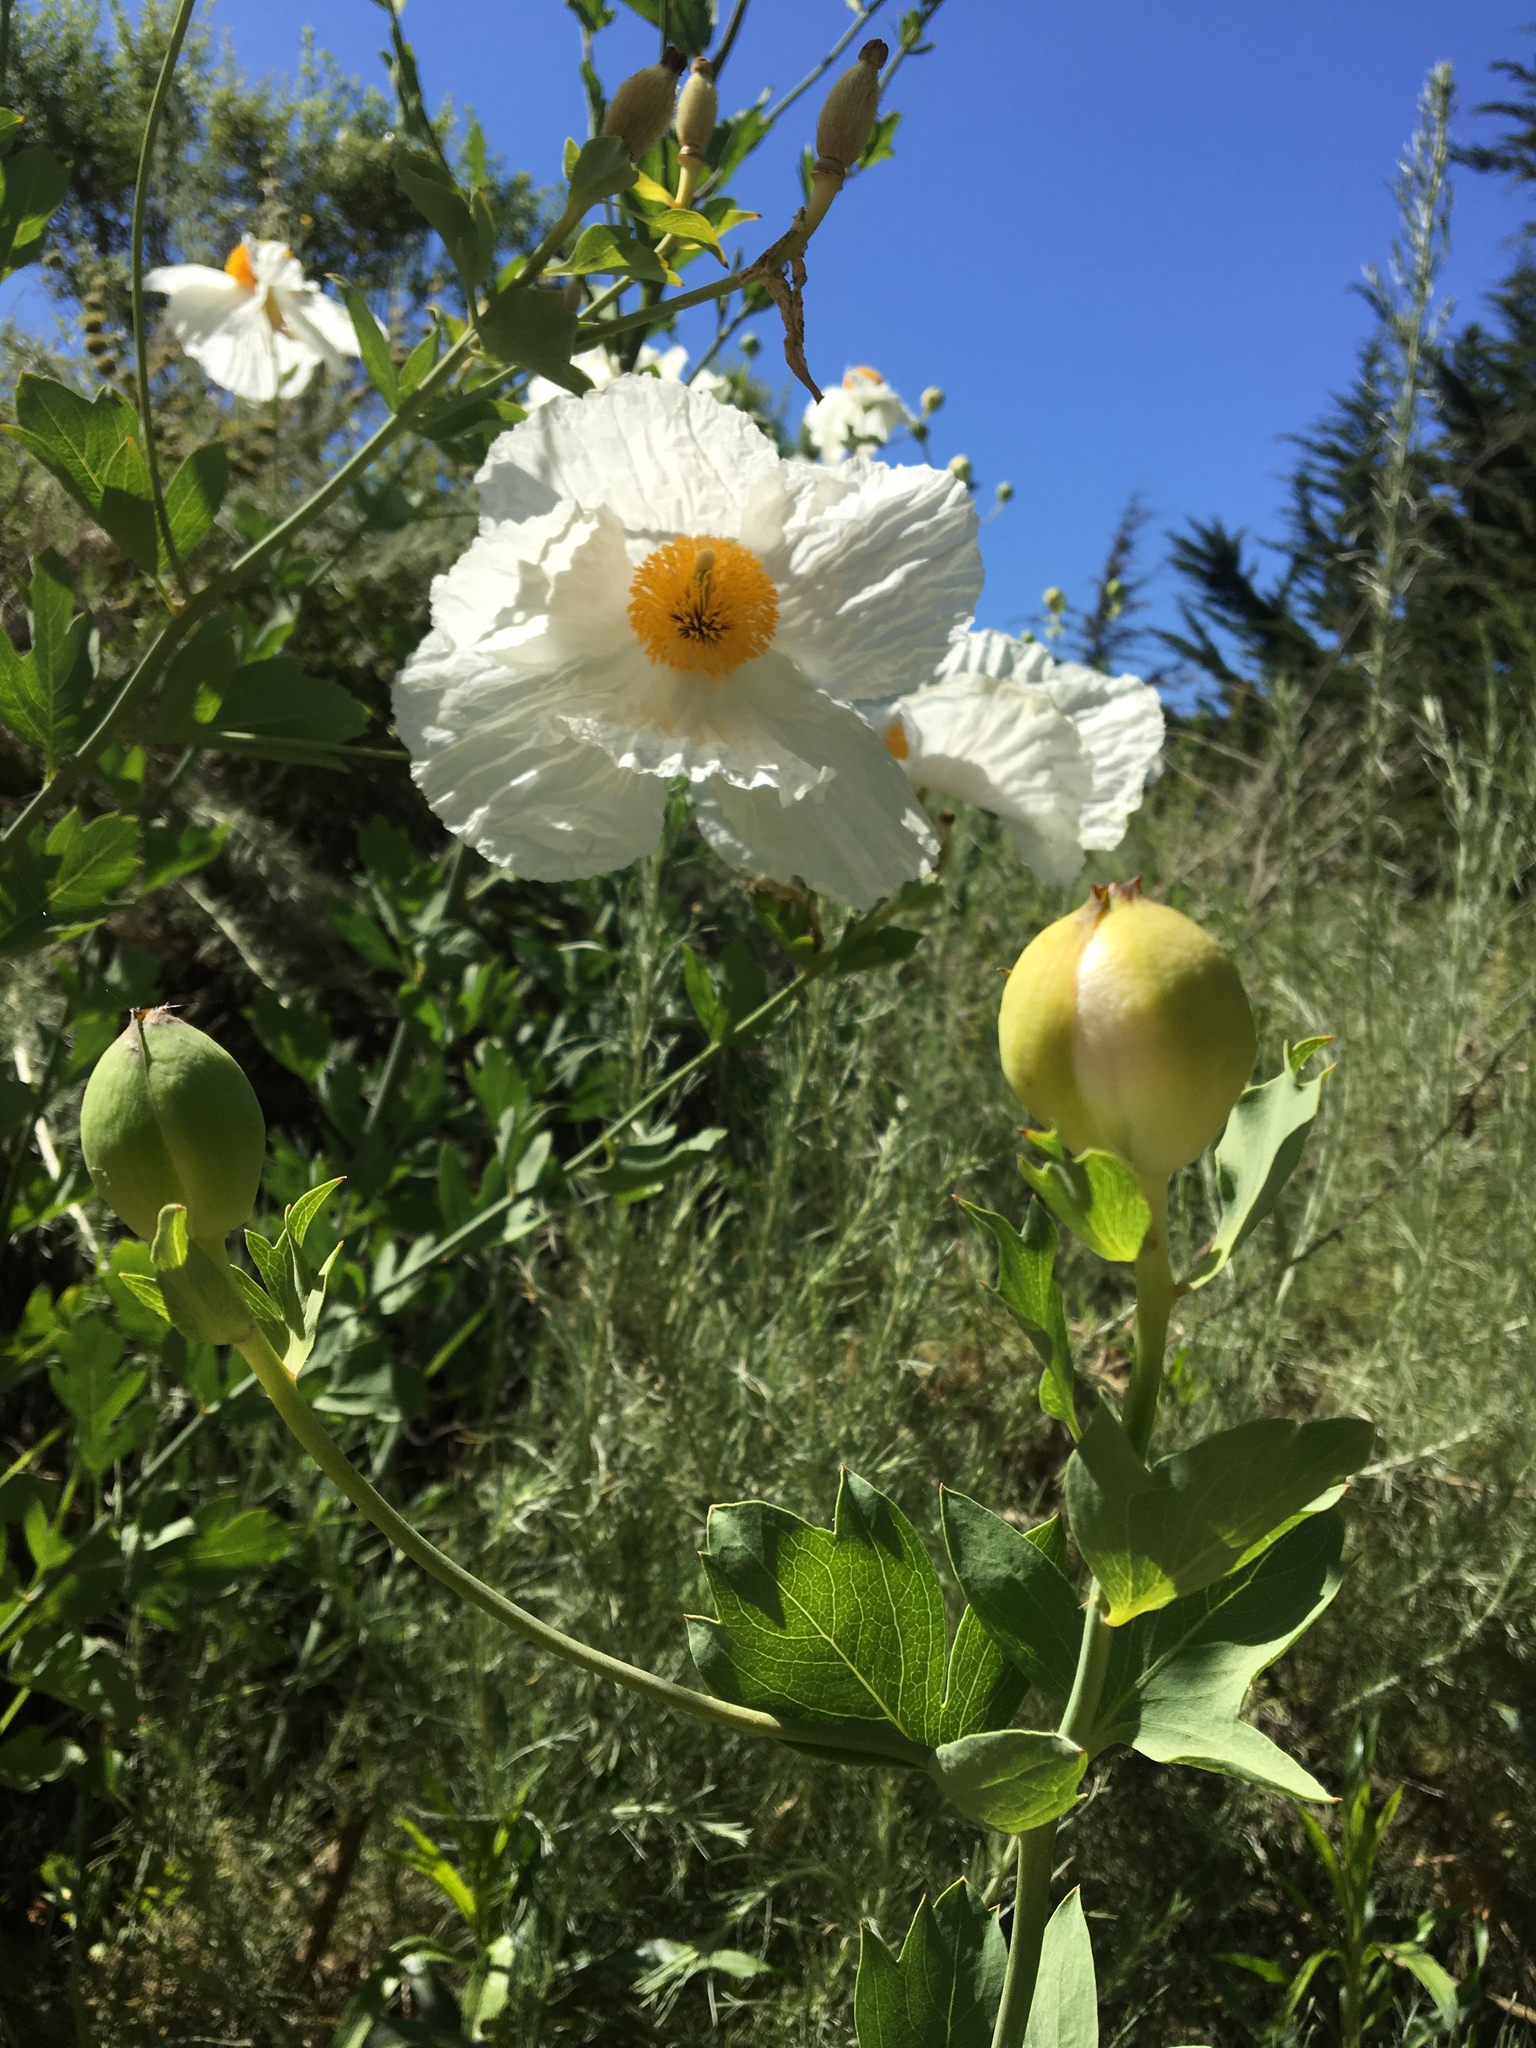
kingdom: Plantae
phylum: Tracheophyta
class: Magnoliopsida
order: Ranunculales
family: Papaveraceae
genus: Romneya
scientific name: Romneya coulteri
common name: California tree-poppy
